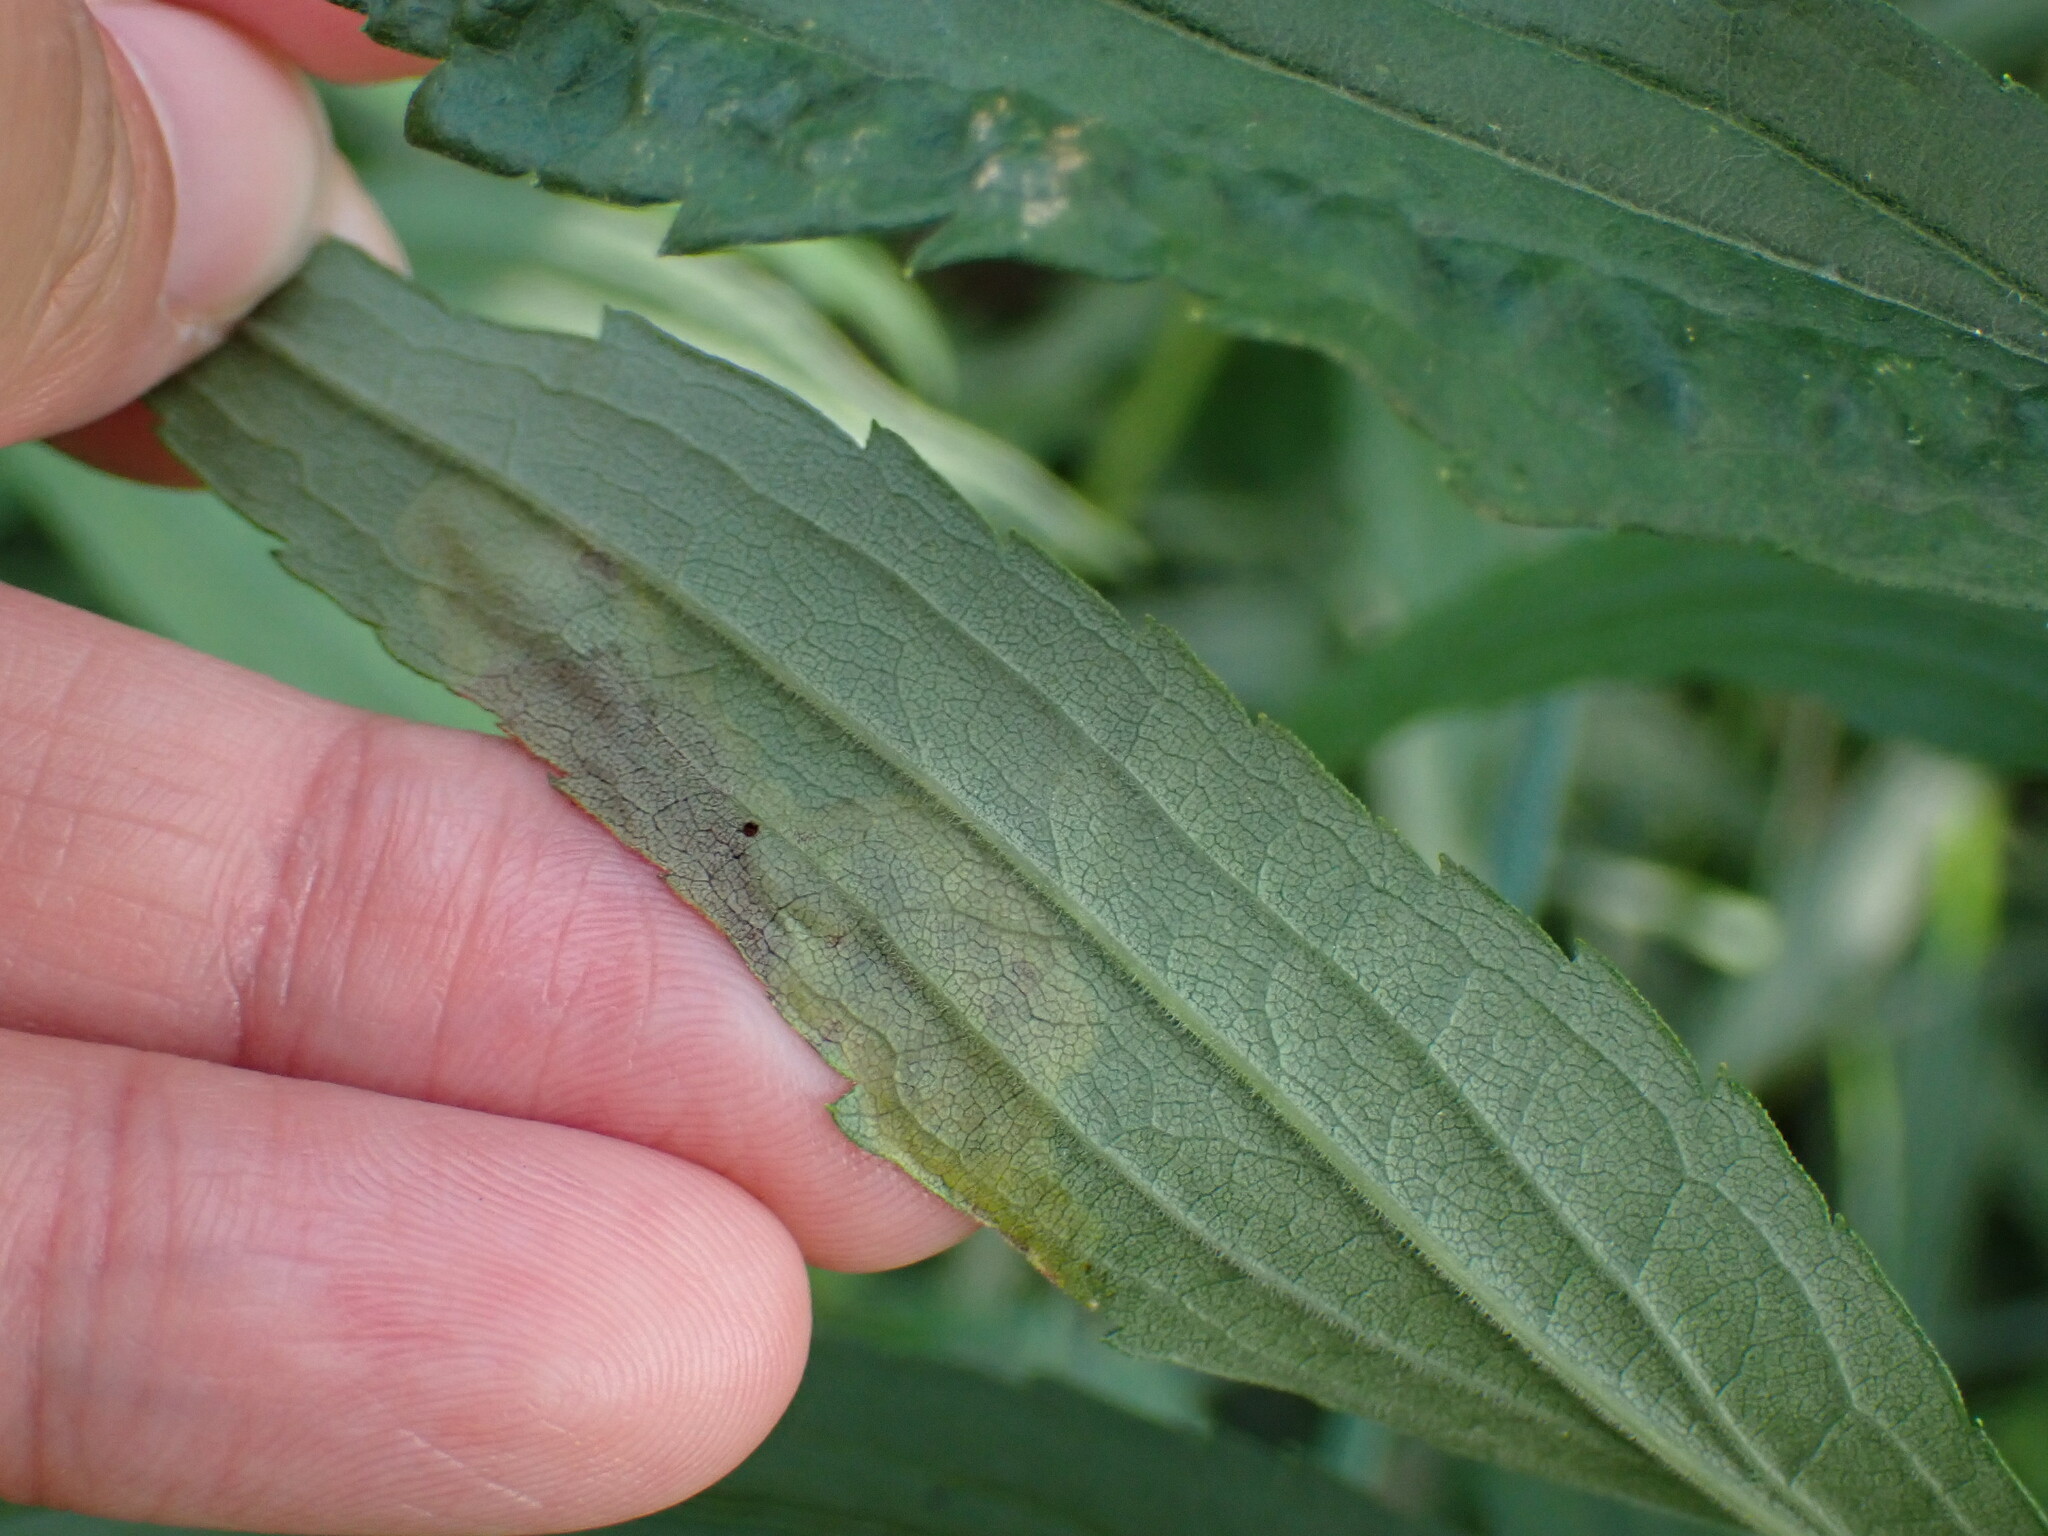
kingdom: Animalia
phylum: Arthropoda
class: Insecta
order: Diptera
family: Agromyzidae
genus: Nemorimyza
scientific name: Nemorimyza posticata
